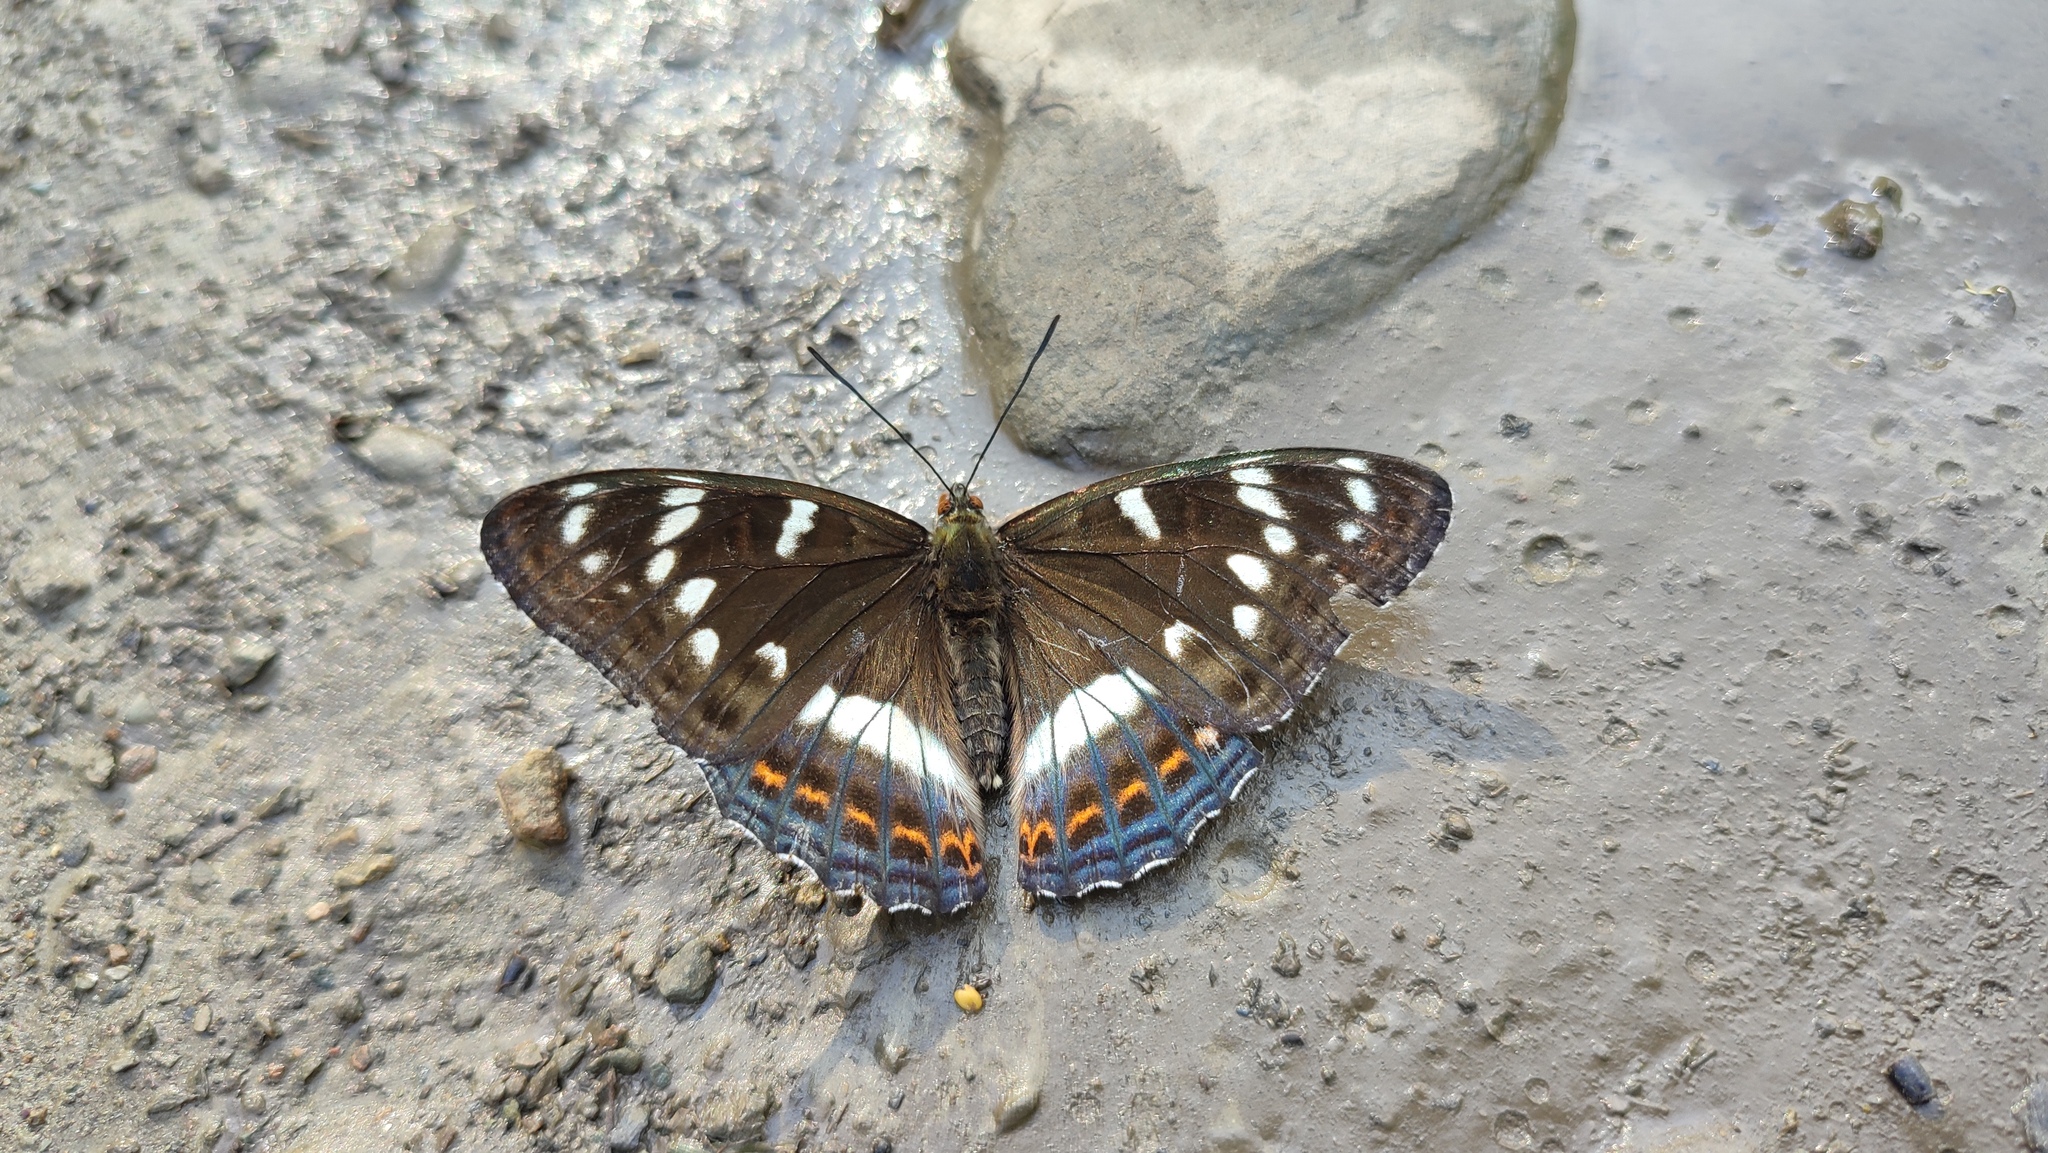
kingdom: Animalia
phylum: Arthropoda
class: Insecta
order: Lepidoptera
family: Nymphalidae
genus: Limenitis
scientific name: Limenitis populi
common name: Poplar admiral
